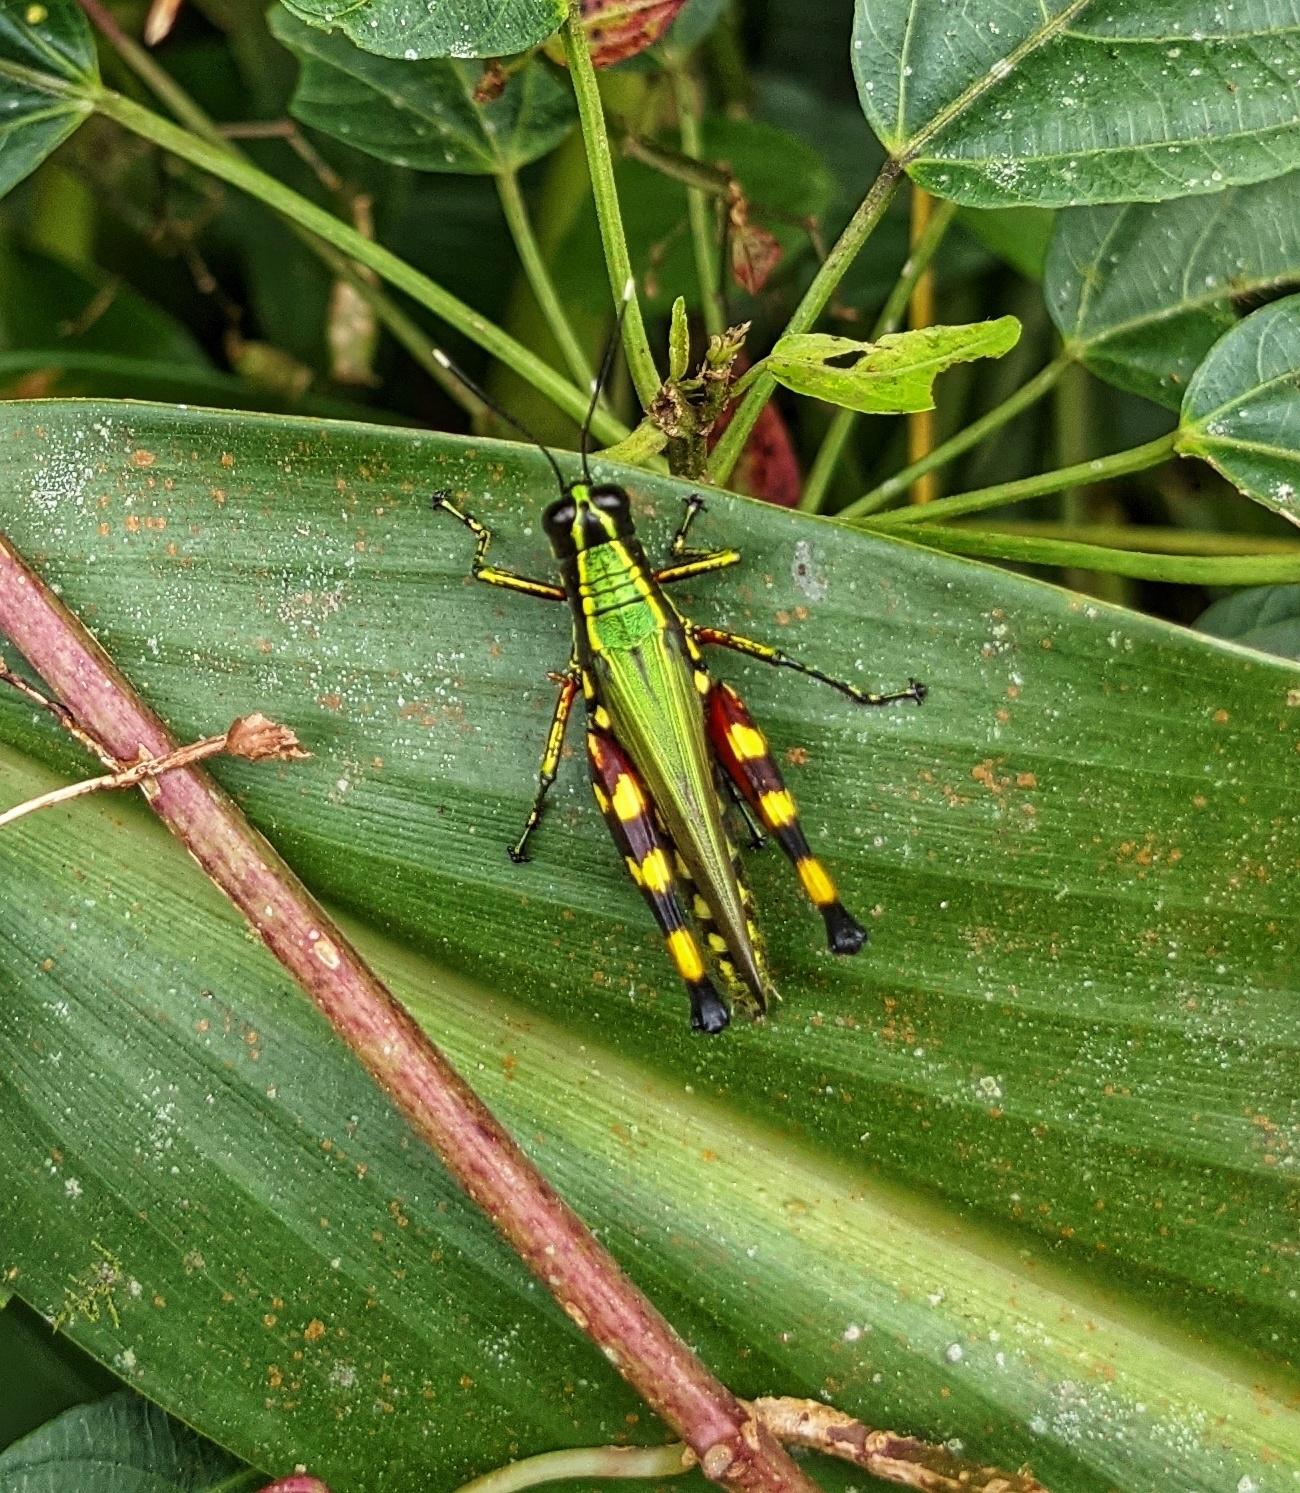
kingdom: Animalia
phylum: Arthropoda
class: Insecta
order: Orthoptera
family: Acrididae
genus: Tetrataenia
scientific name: Tetrataenia surinama
